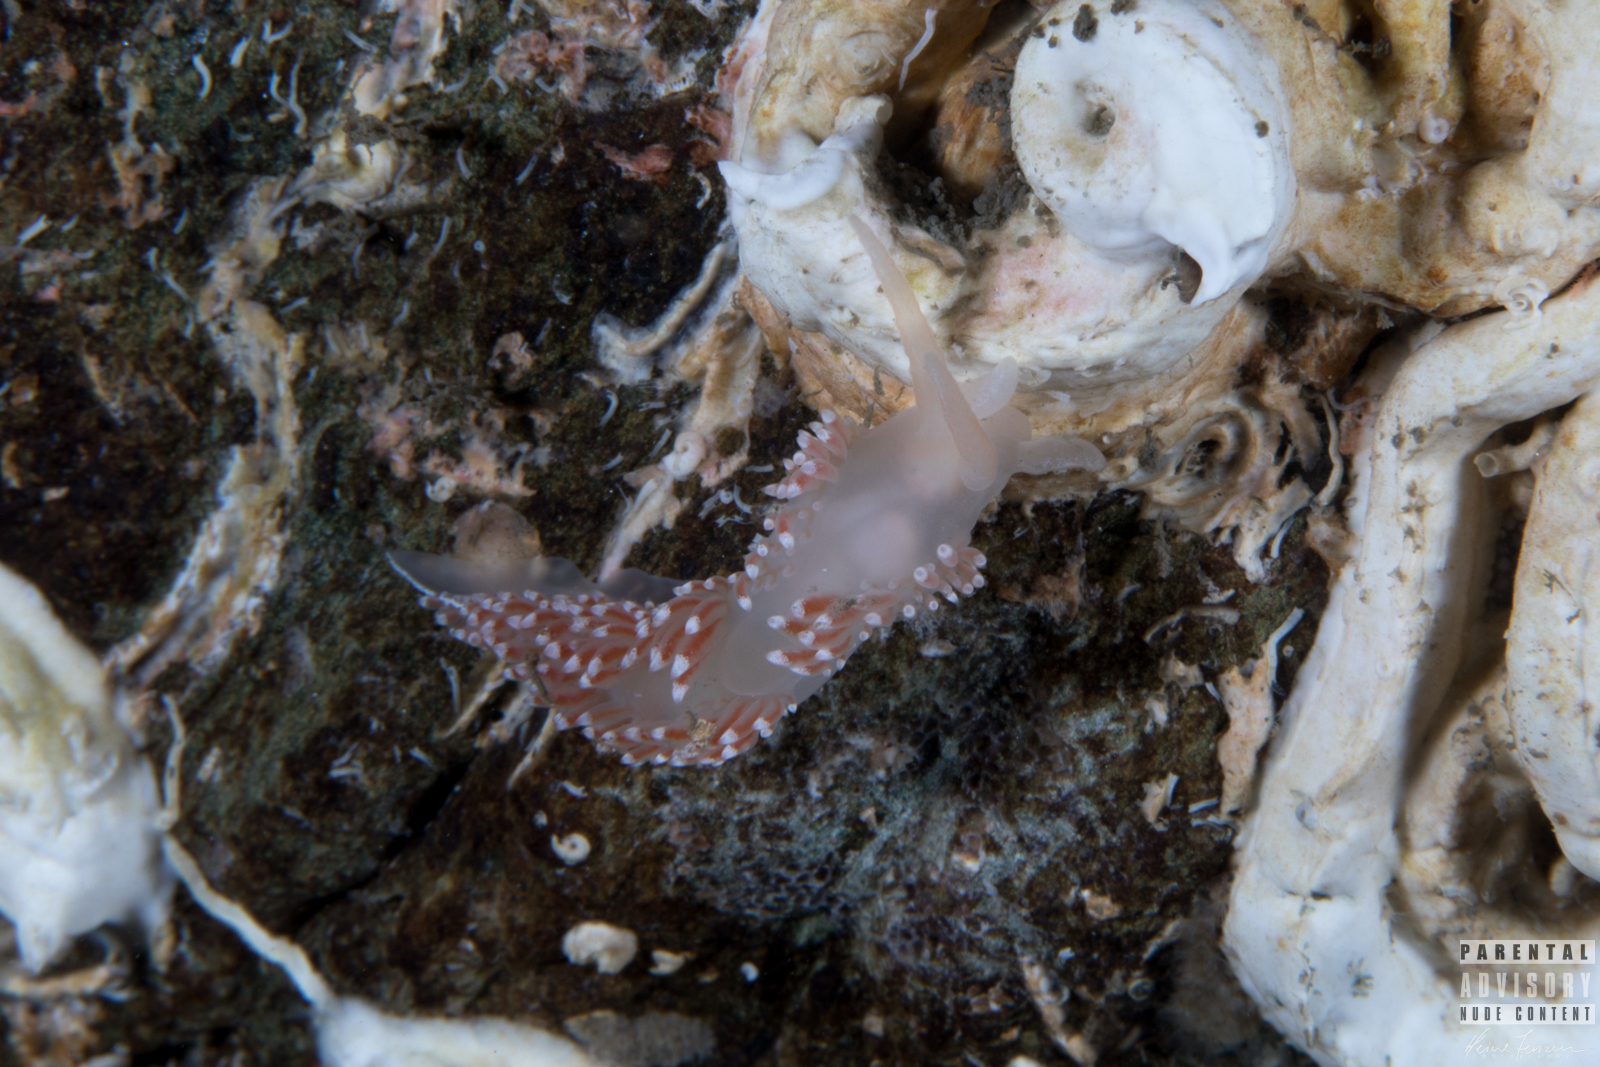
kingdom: Animalia
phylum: Mollusca
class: Gastropoda
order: Nudibranchia
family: Coryphellidae
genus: Coryphella
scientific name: Coryphella verrucosa
